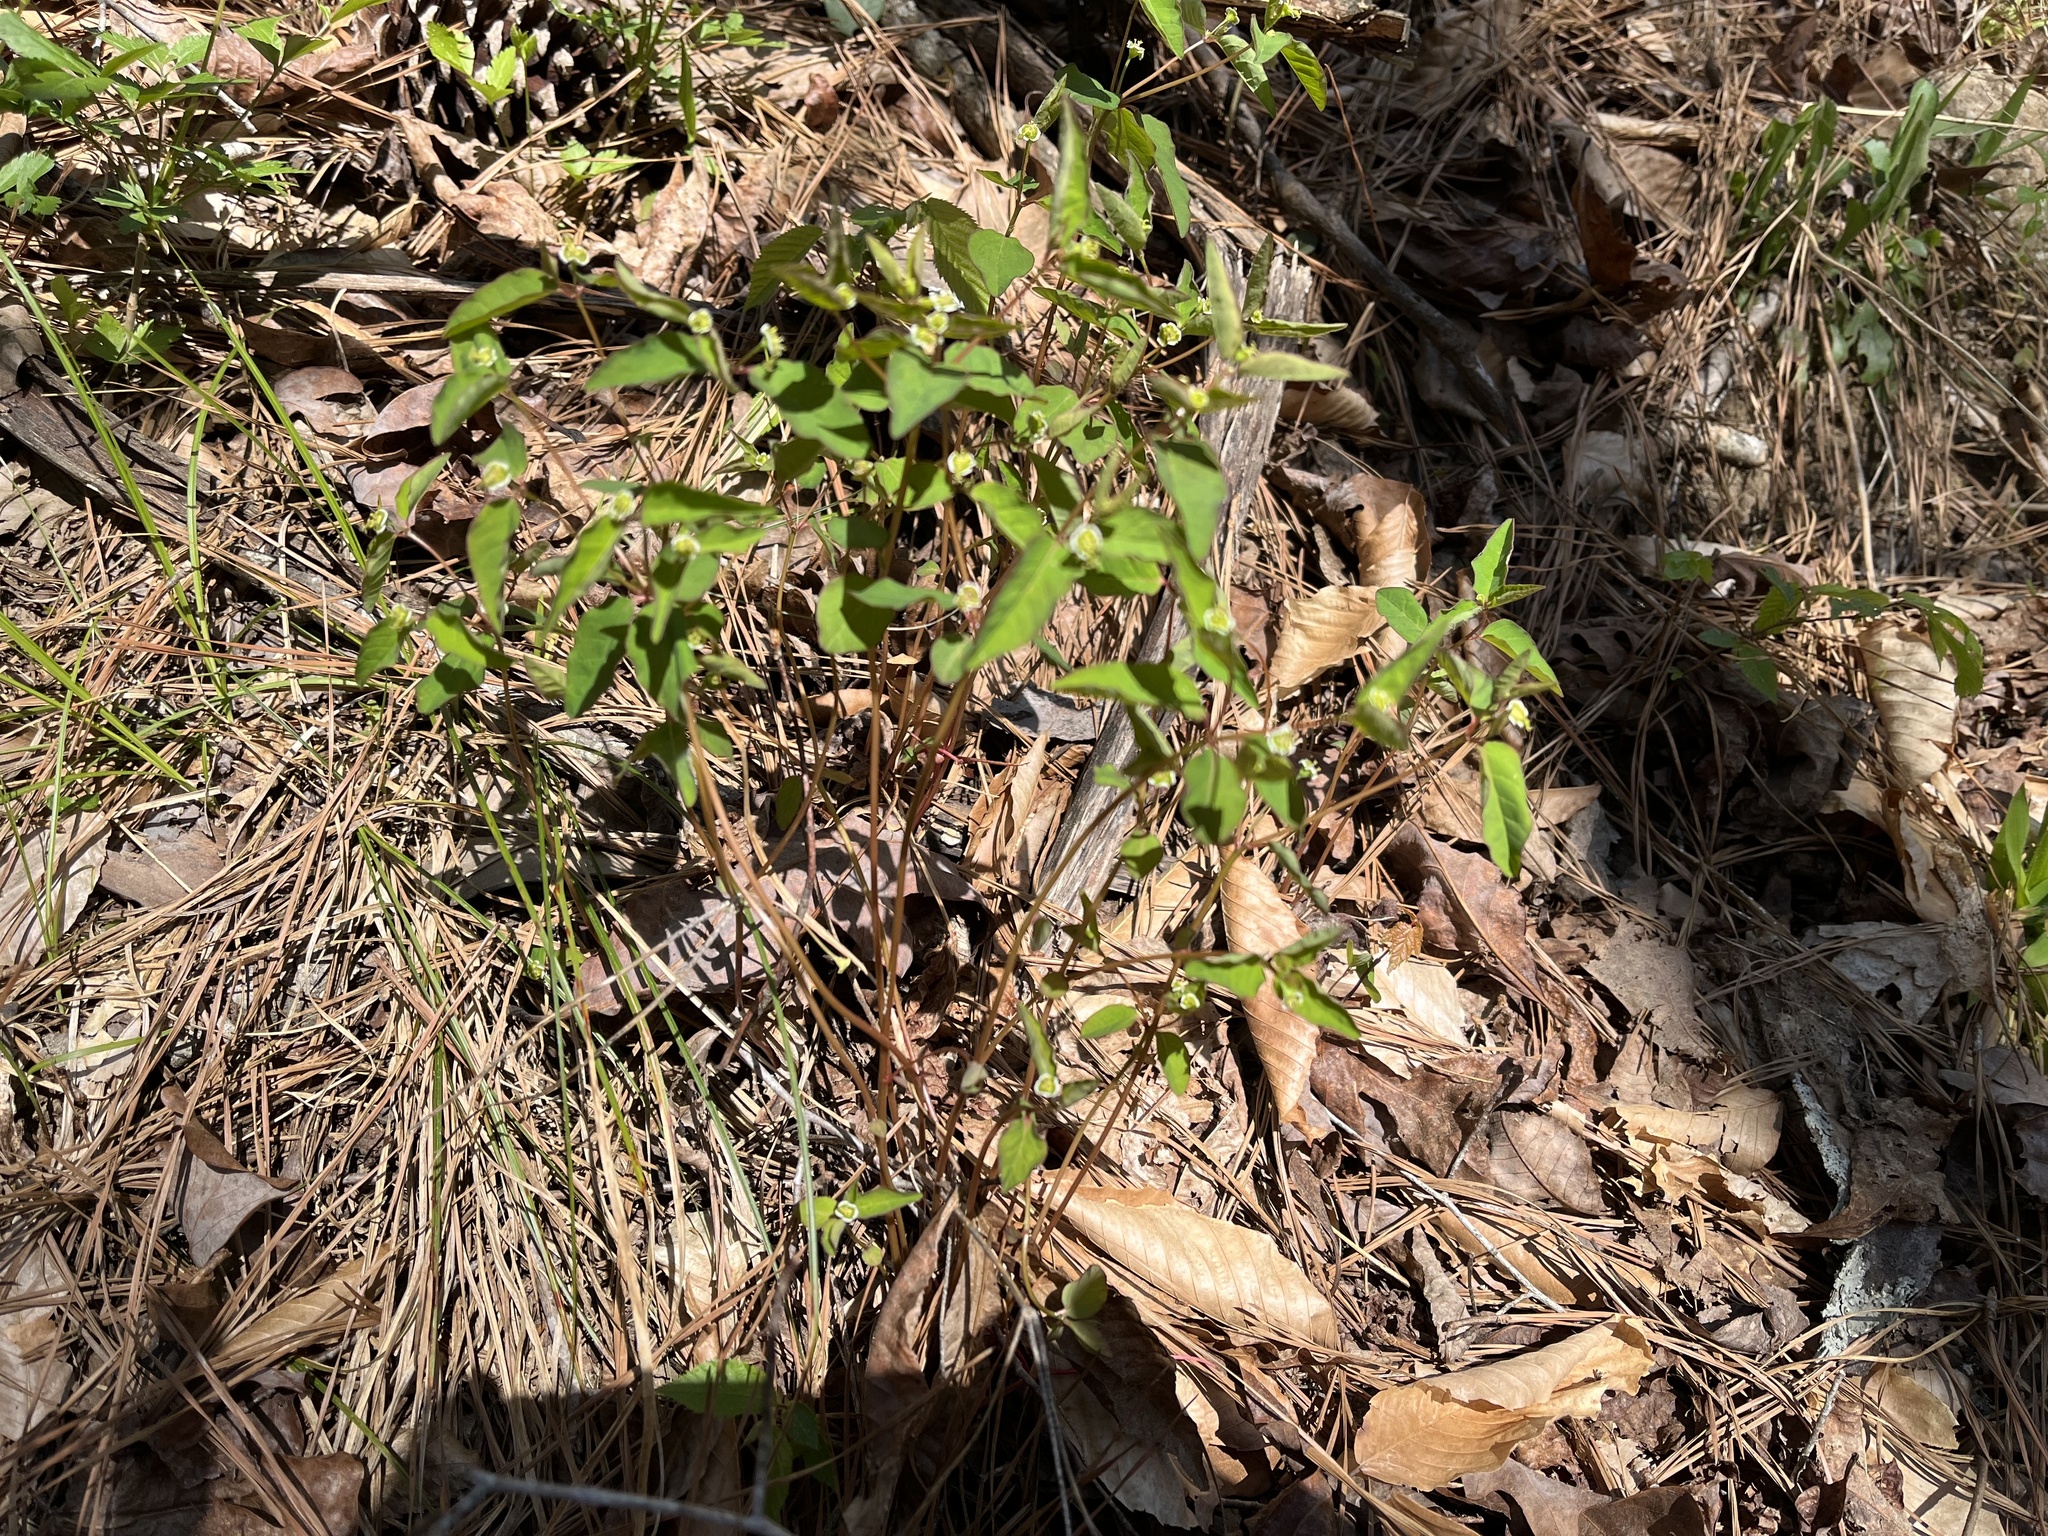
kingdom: Plantae
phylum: Tracheophyta
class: Magnoliopsida
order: Malpighiales
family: Euphorbiaceae
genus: Euphorbia
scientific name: Euphorbia mercurialina
